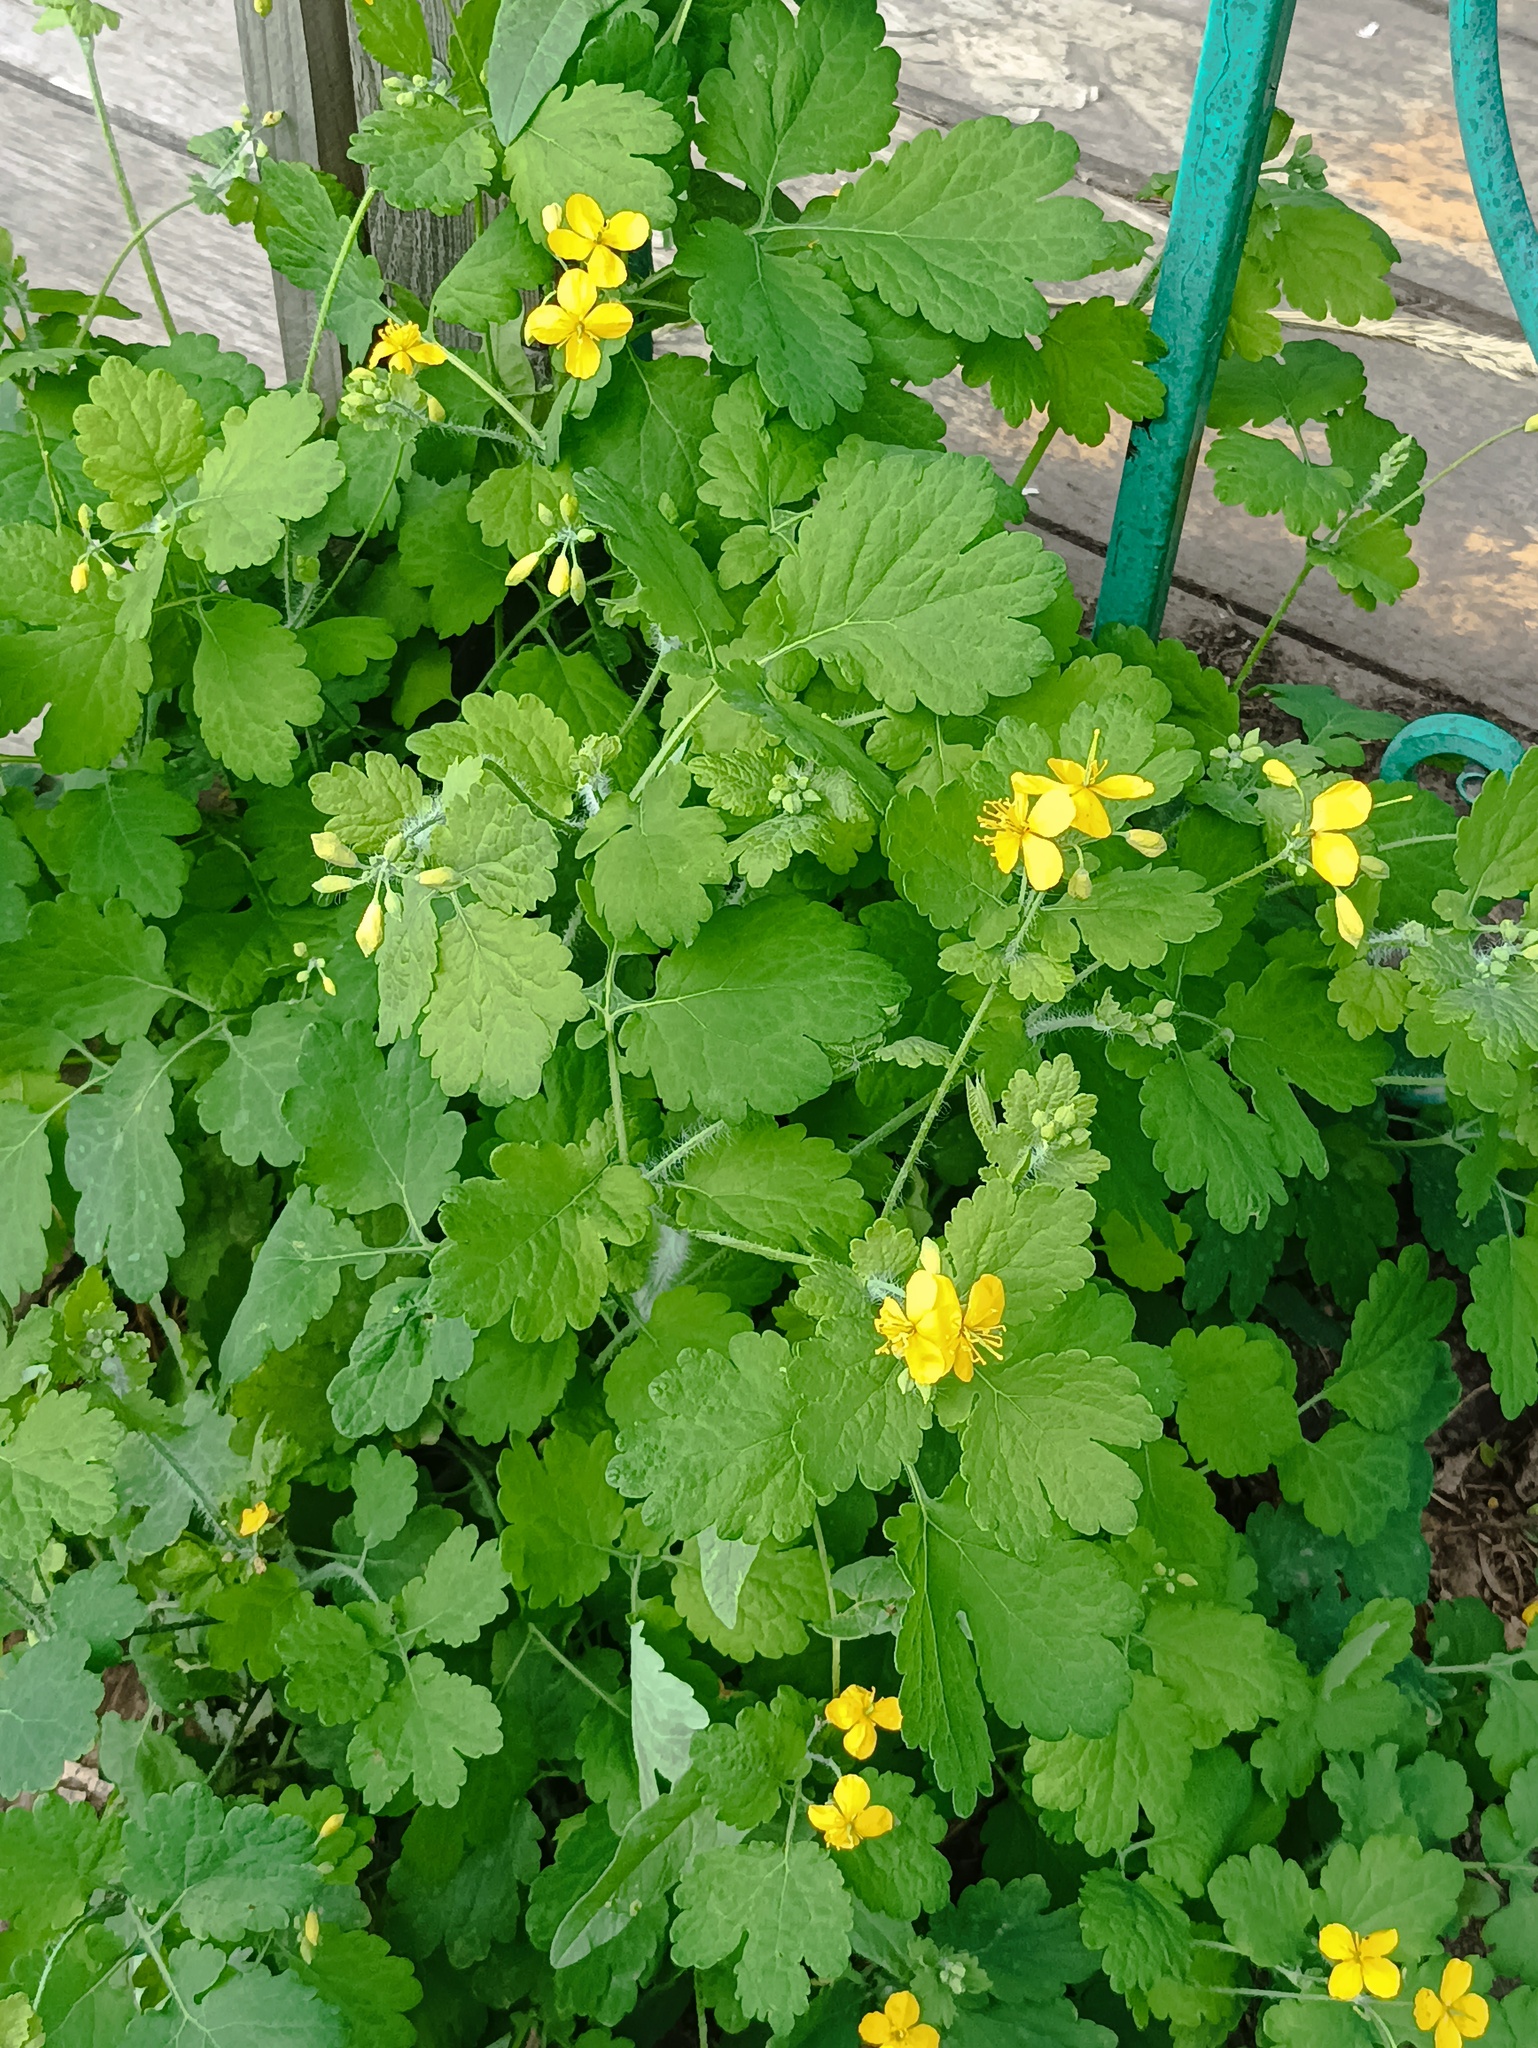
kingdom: Plantae
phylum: Tracheophyta
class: Magnoliopsida
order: Ranunculales
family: Papaveraceae
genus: Chelidonium
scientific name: Chelidonium majus
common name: Greater celandine
